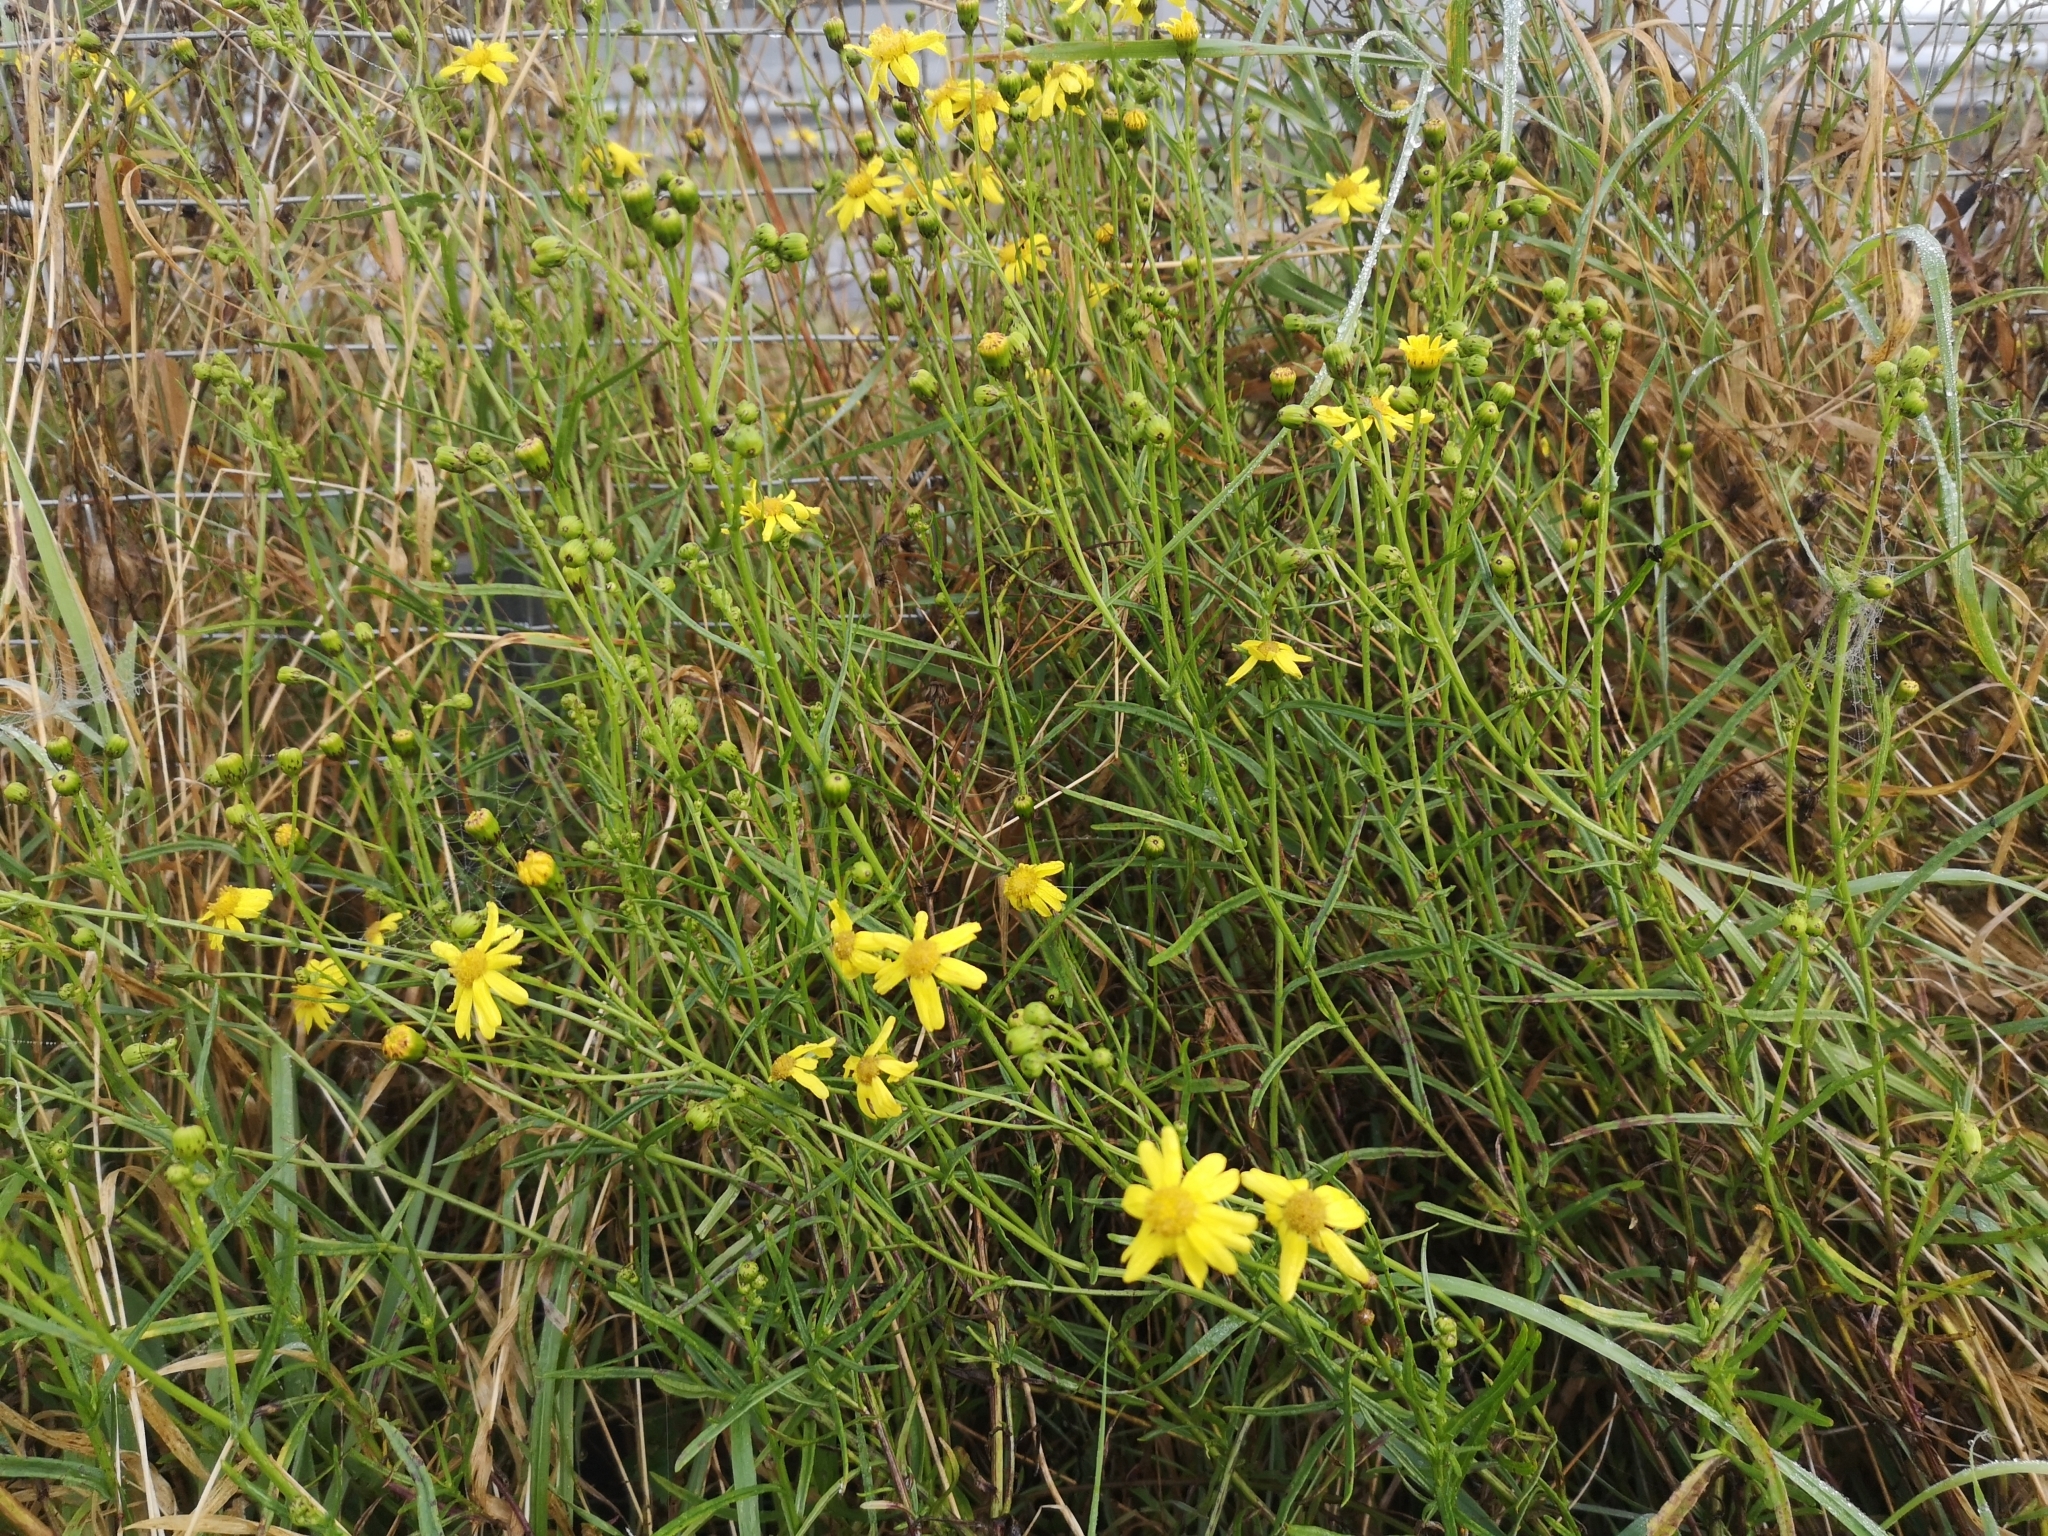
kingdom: Plantae
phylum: Tracheophyta
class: Magnoliopsida
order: Asterales
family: Asteraceae
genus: Senecio
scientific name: Senecio inaequidens
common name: Narrow-leaved ragwort
